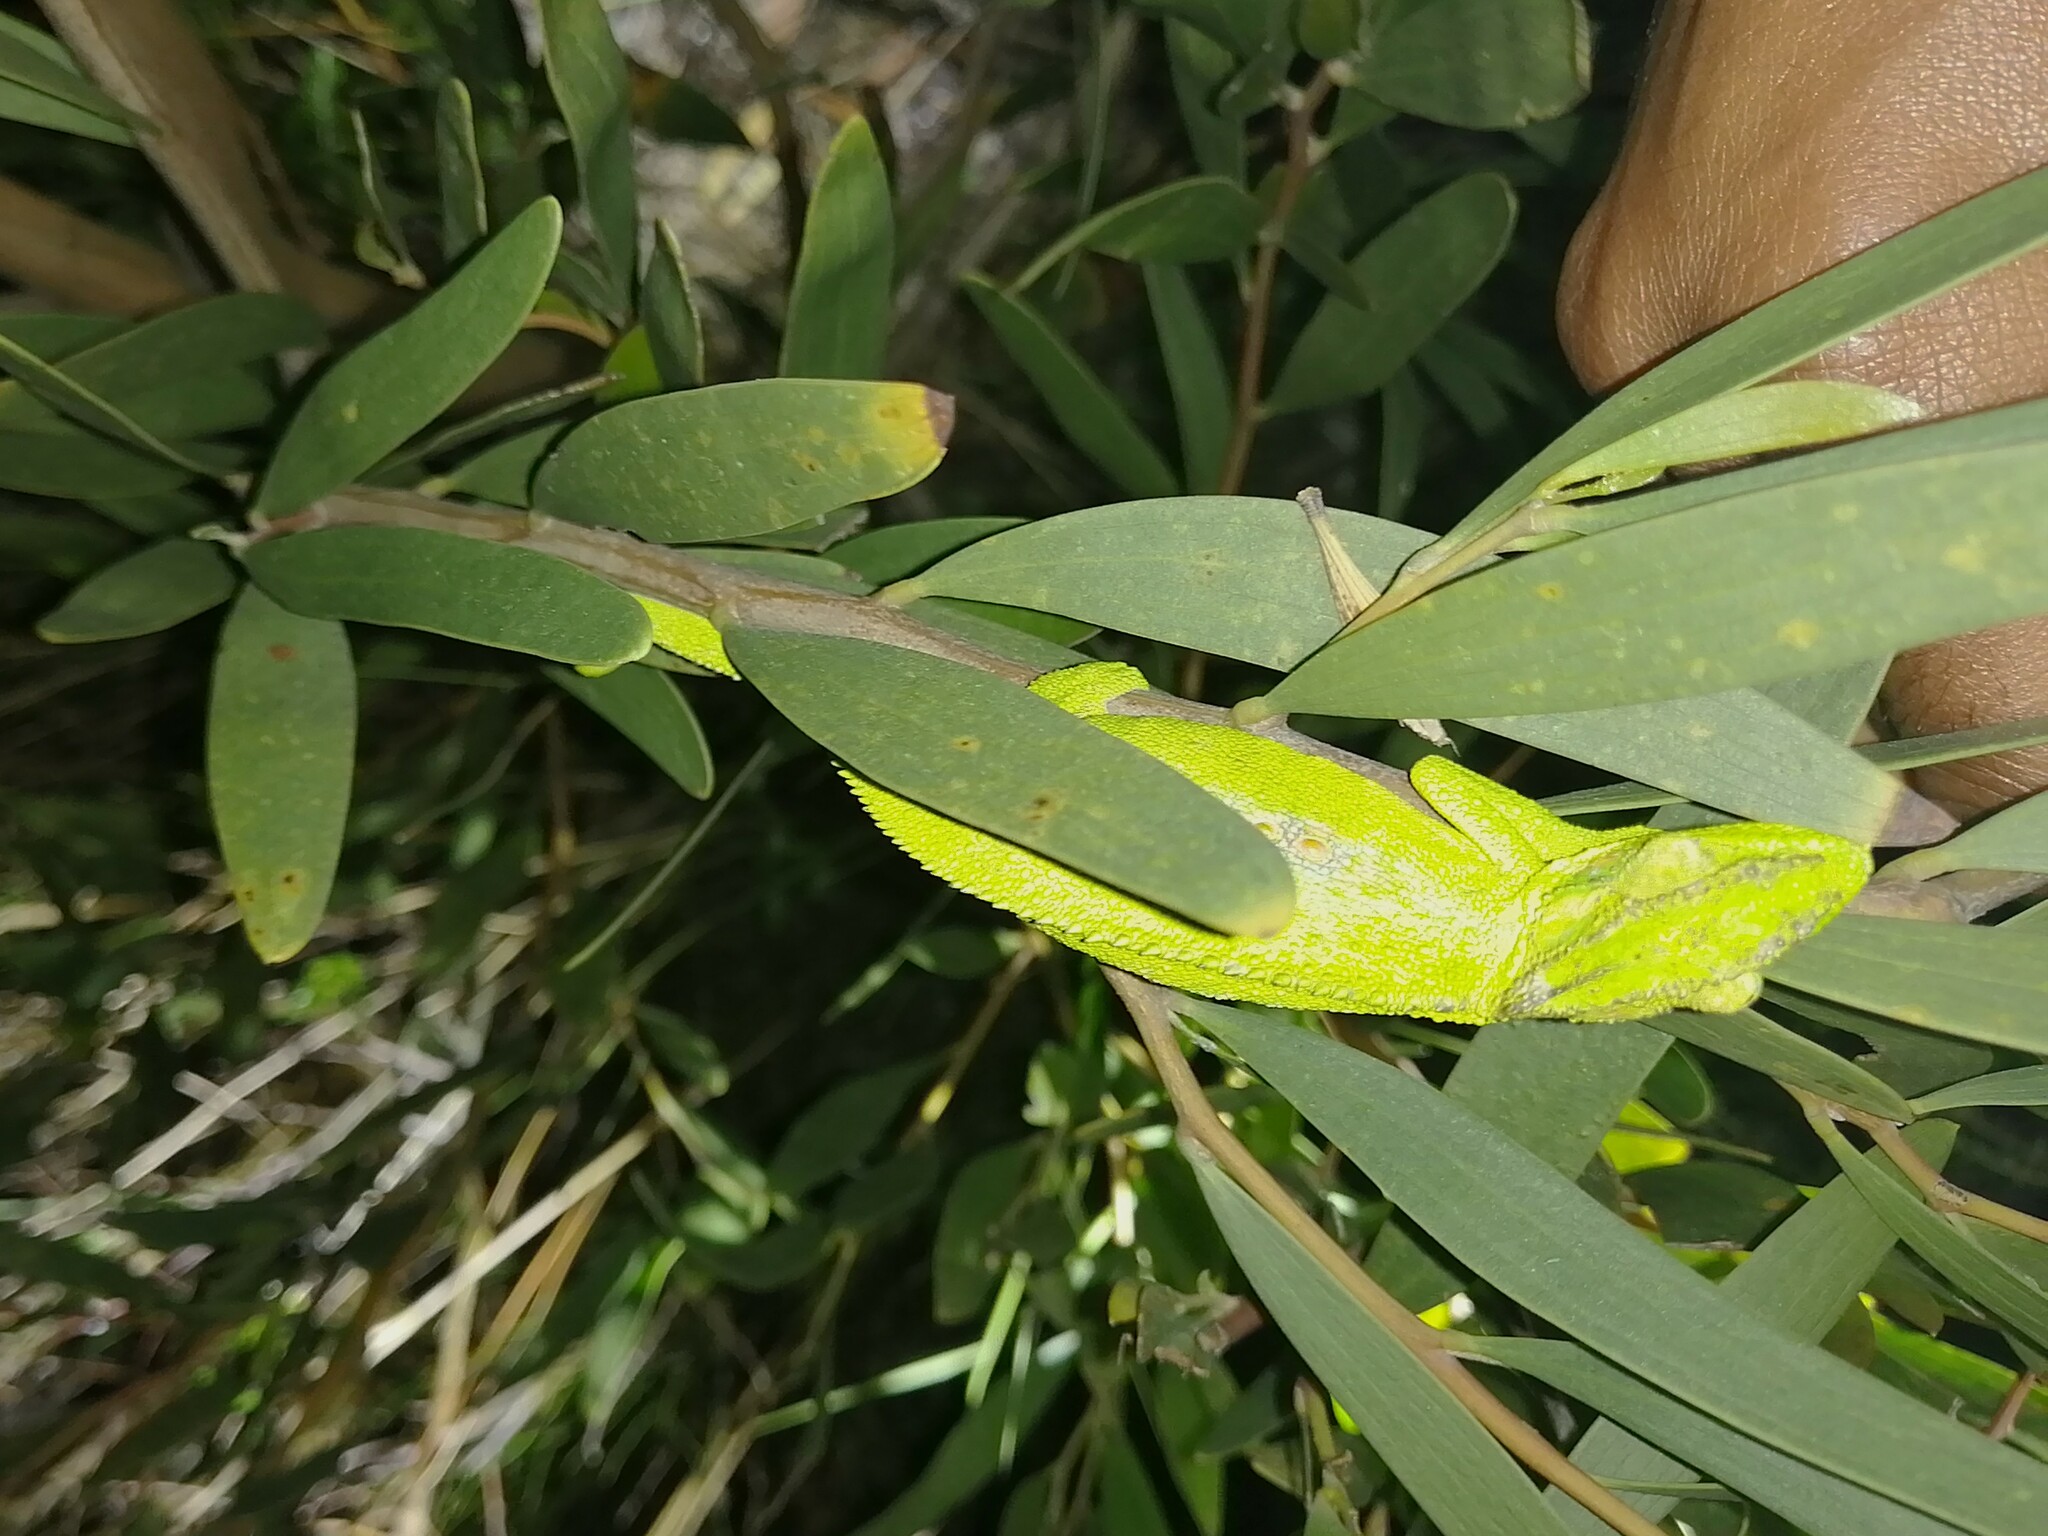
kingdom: Animalia
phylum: Chordata
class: Squamata
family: Chamaeleonidae
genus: Bradypodion
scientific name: Bradypodion pumilum
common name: Cape dwarf chameleon
